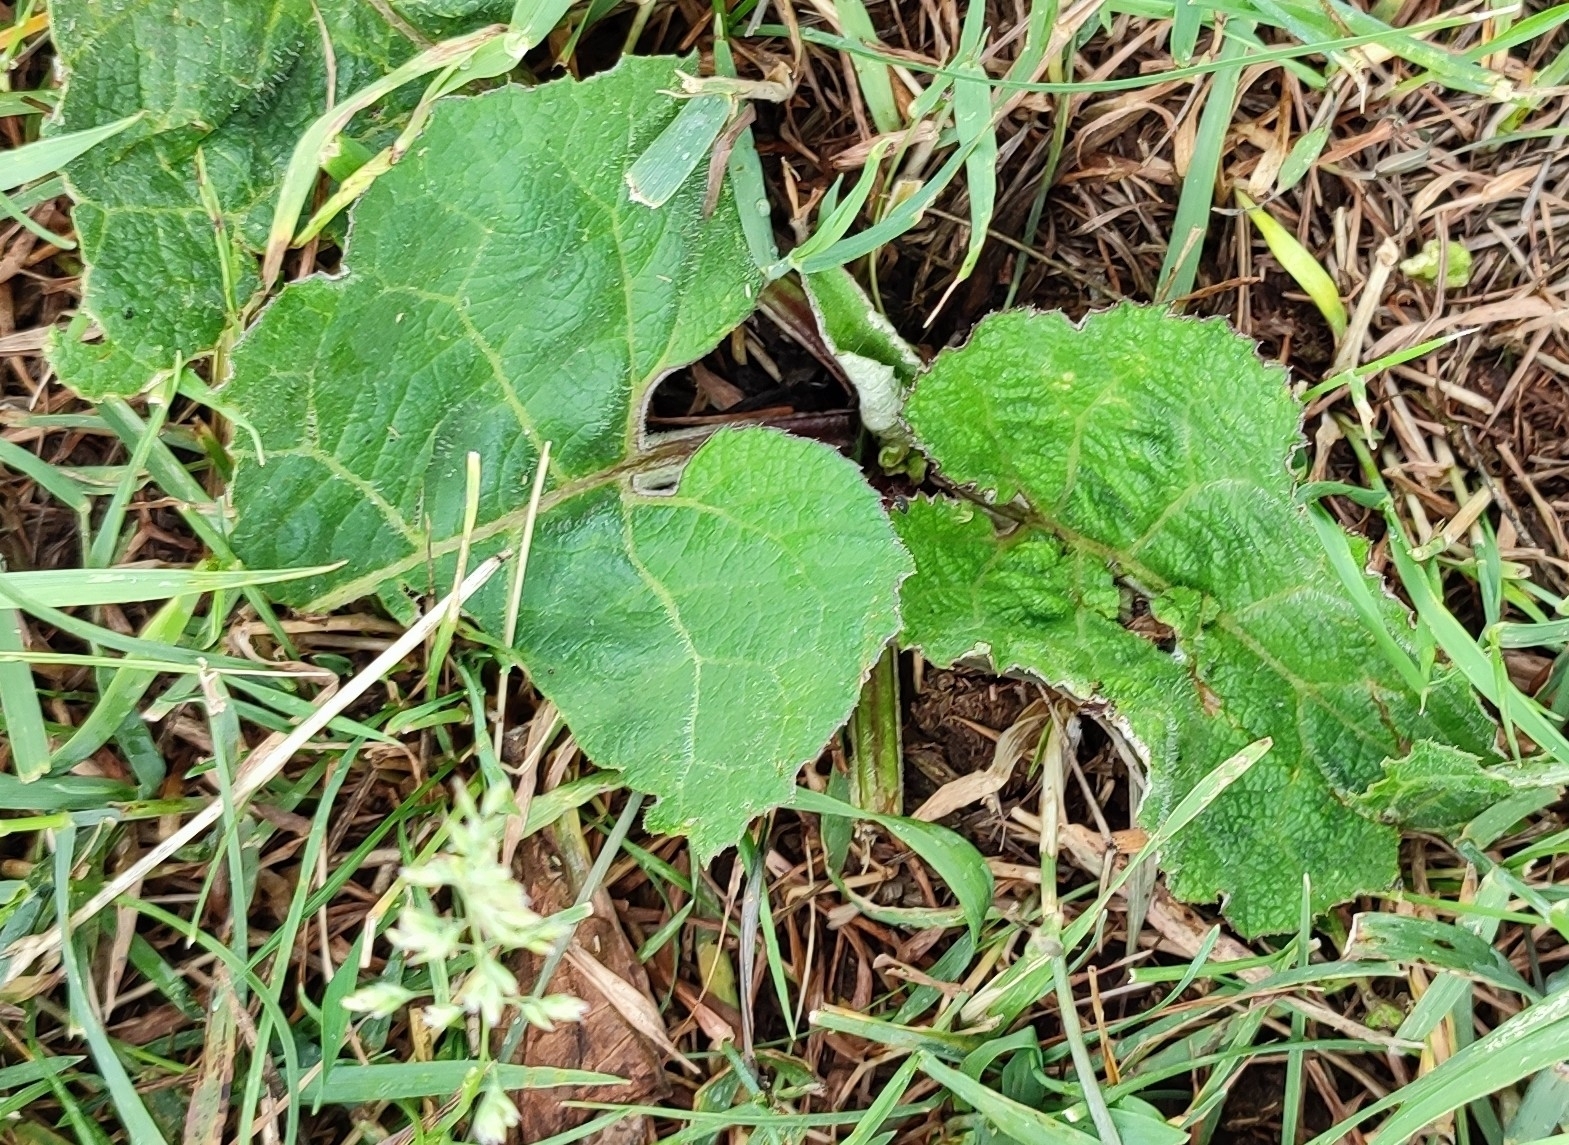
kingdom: Plantae
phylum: Tracheophyta
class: Magnoliopsida
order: Asterales
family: Asteraceae
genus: Arctium
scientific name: Arctium tomentosum
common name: Woolly burdock
